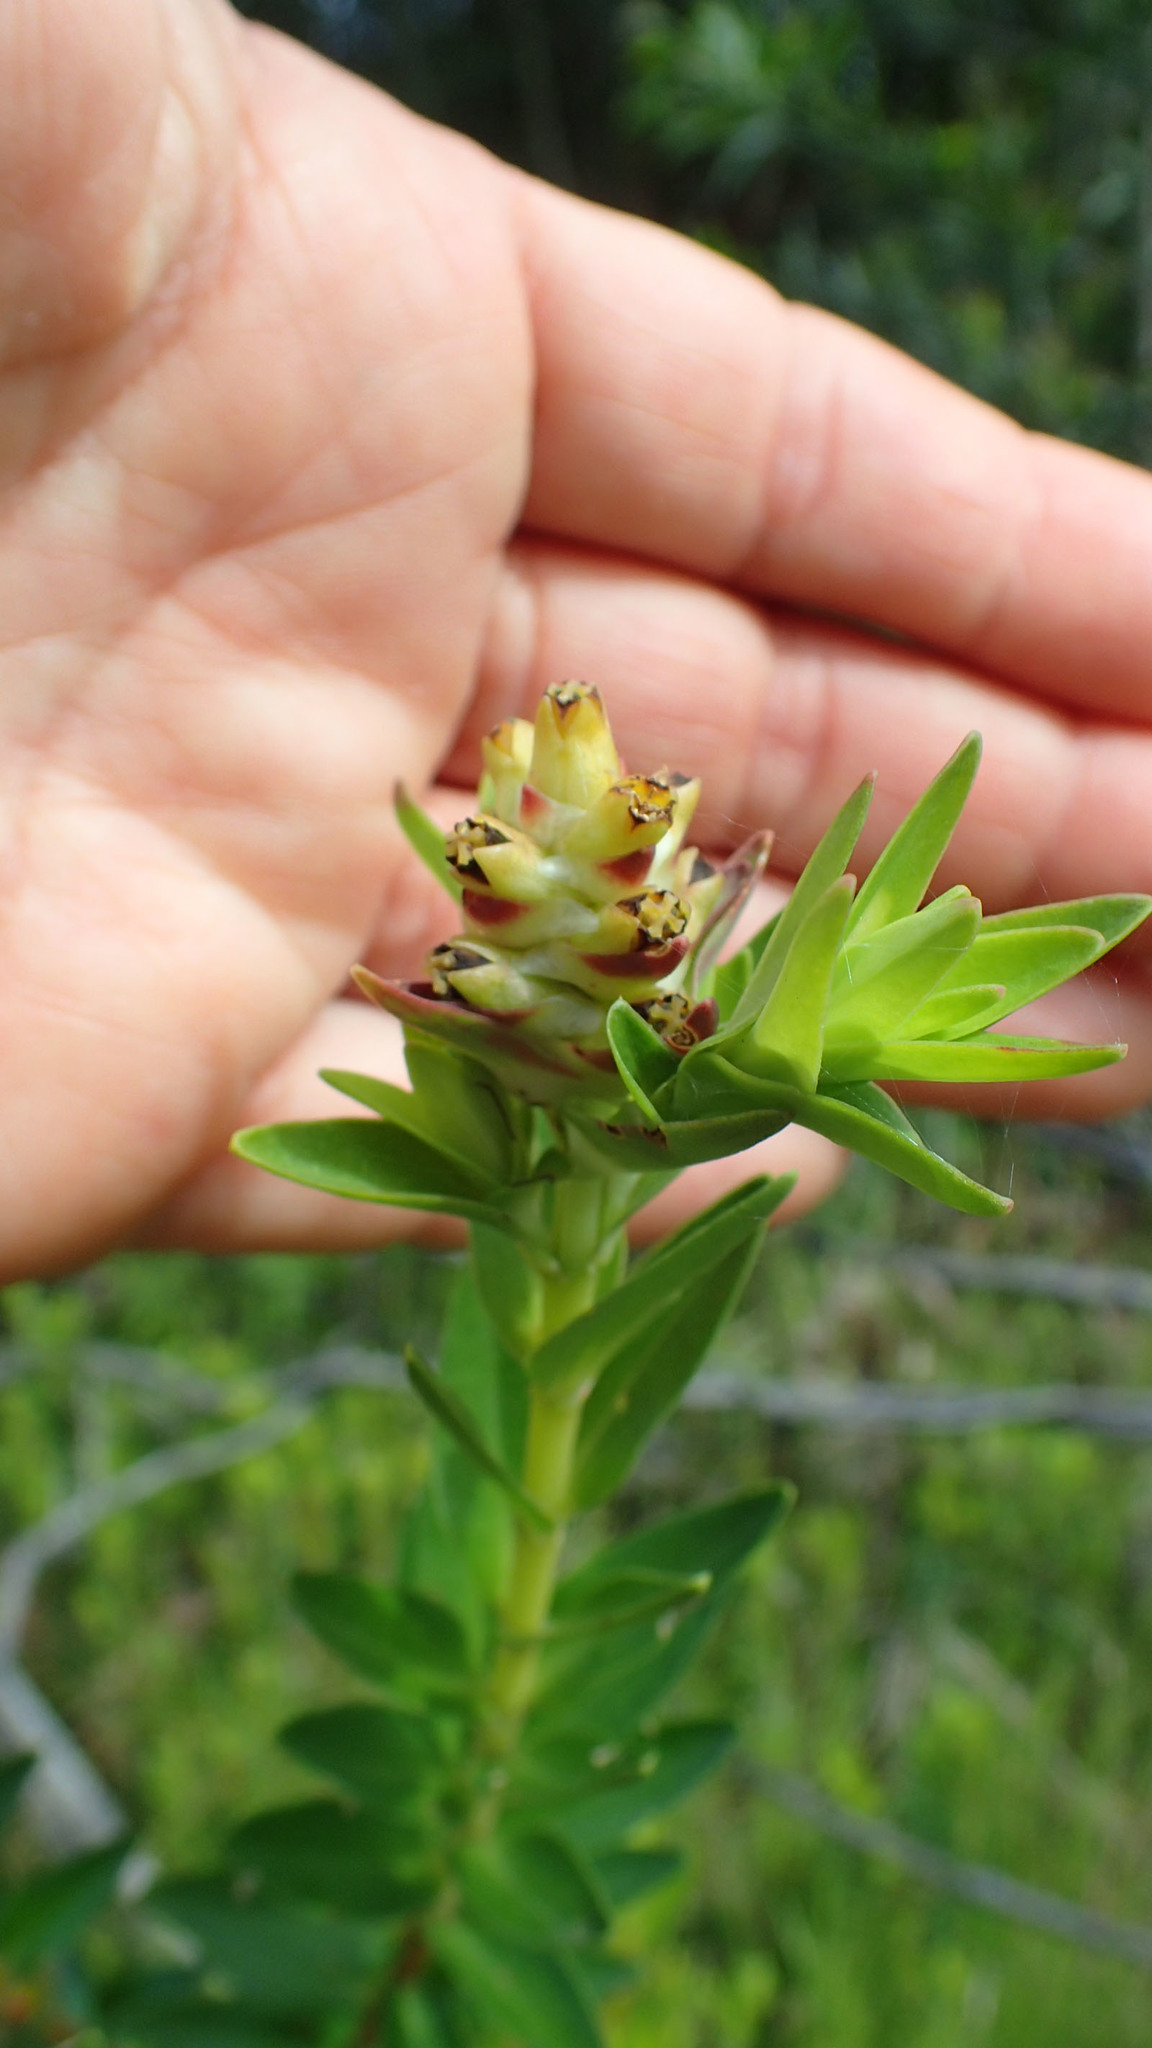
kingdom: Plantae
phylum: Tracheophyta
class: Magnoliopsida
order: Myrtales
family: Penaeaceae
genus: Penaea
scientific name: Penaea cneorum
